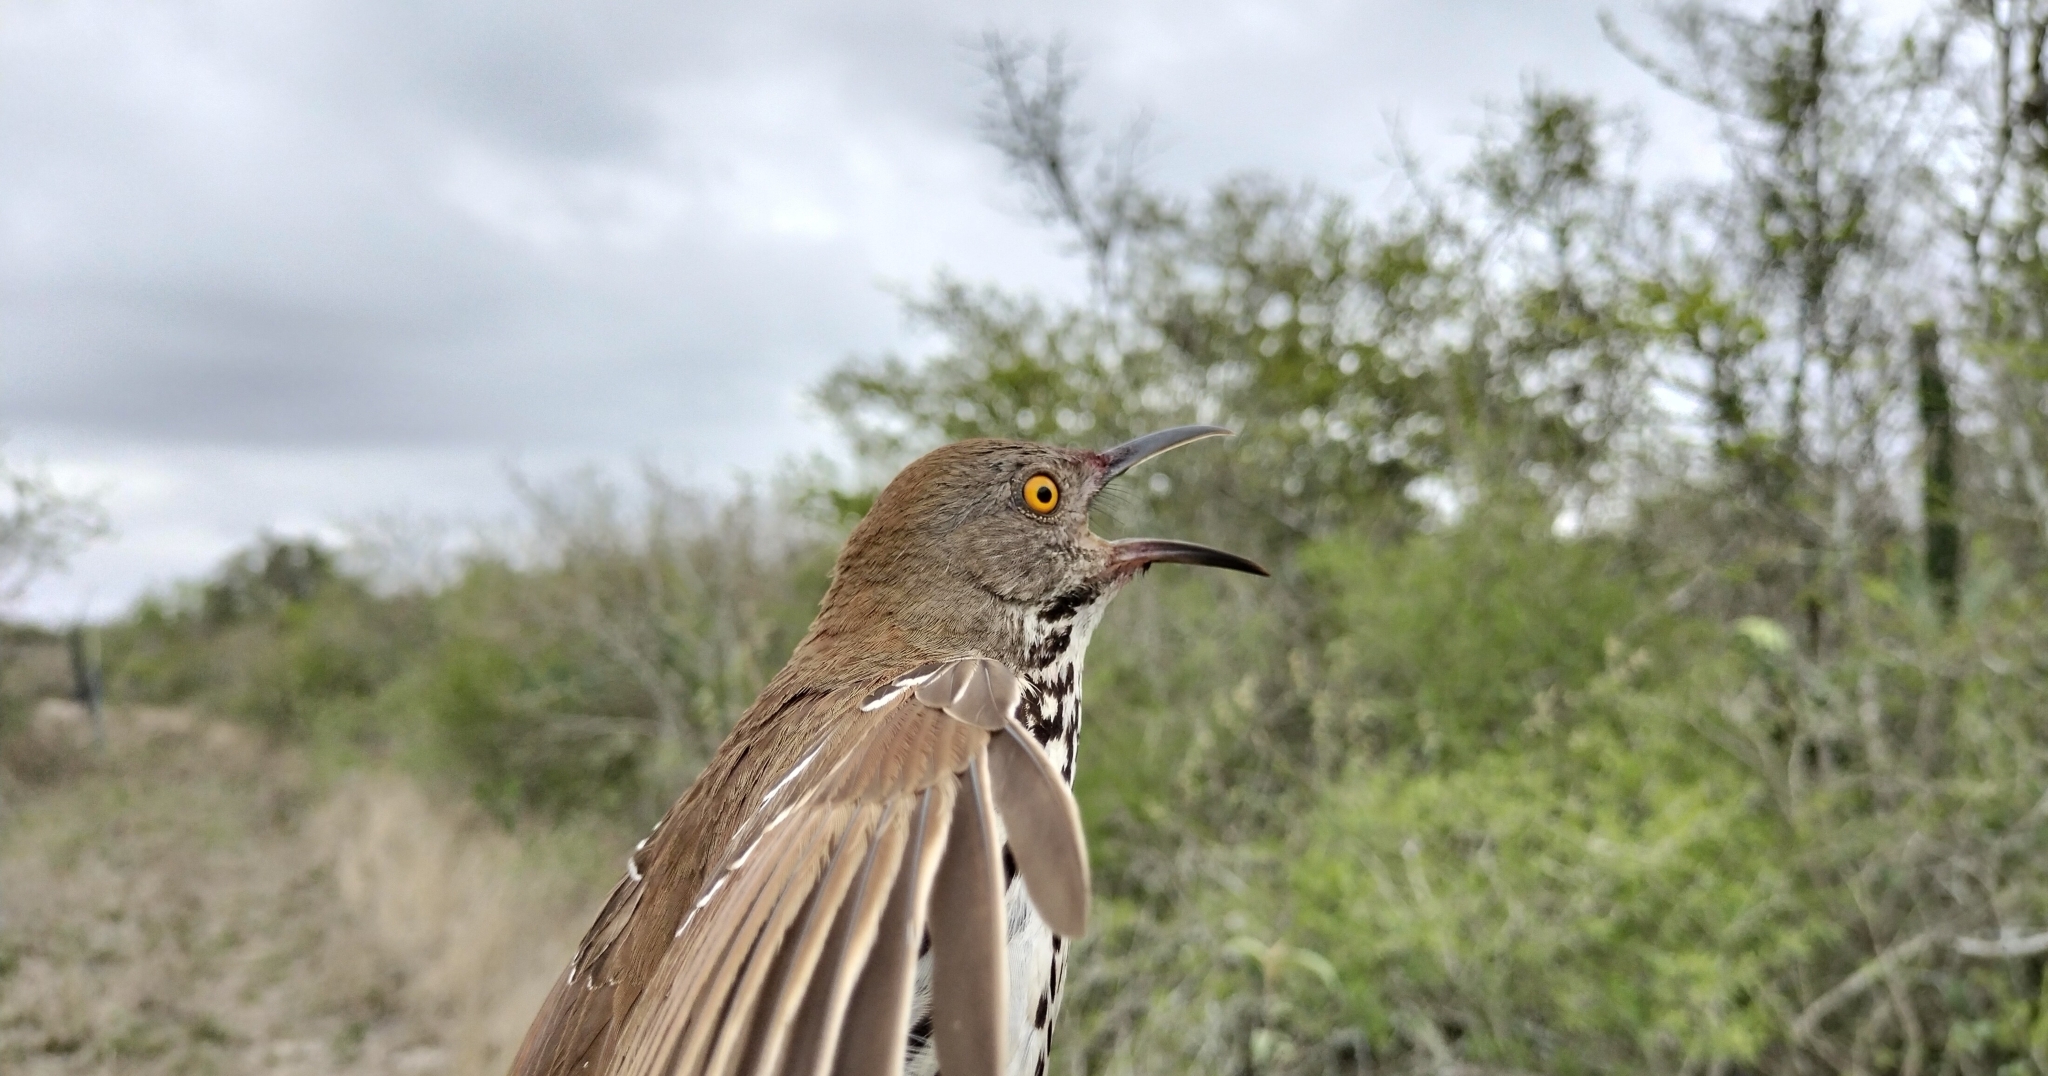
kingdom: Animalia
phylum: Chordata
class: Aves
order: Passeriformes
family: Mimidae
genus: Toxostoma
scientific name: Toxostoma longirostre
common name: Long-billed thrasher
